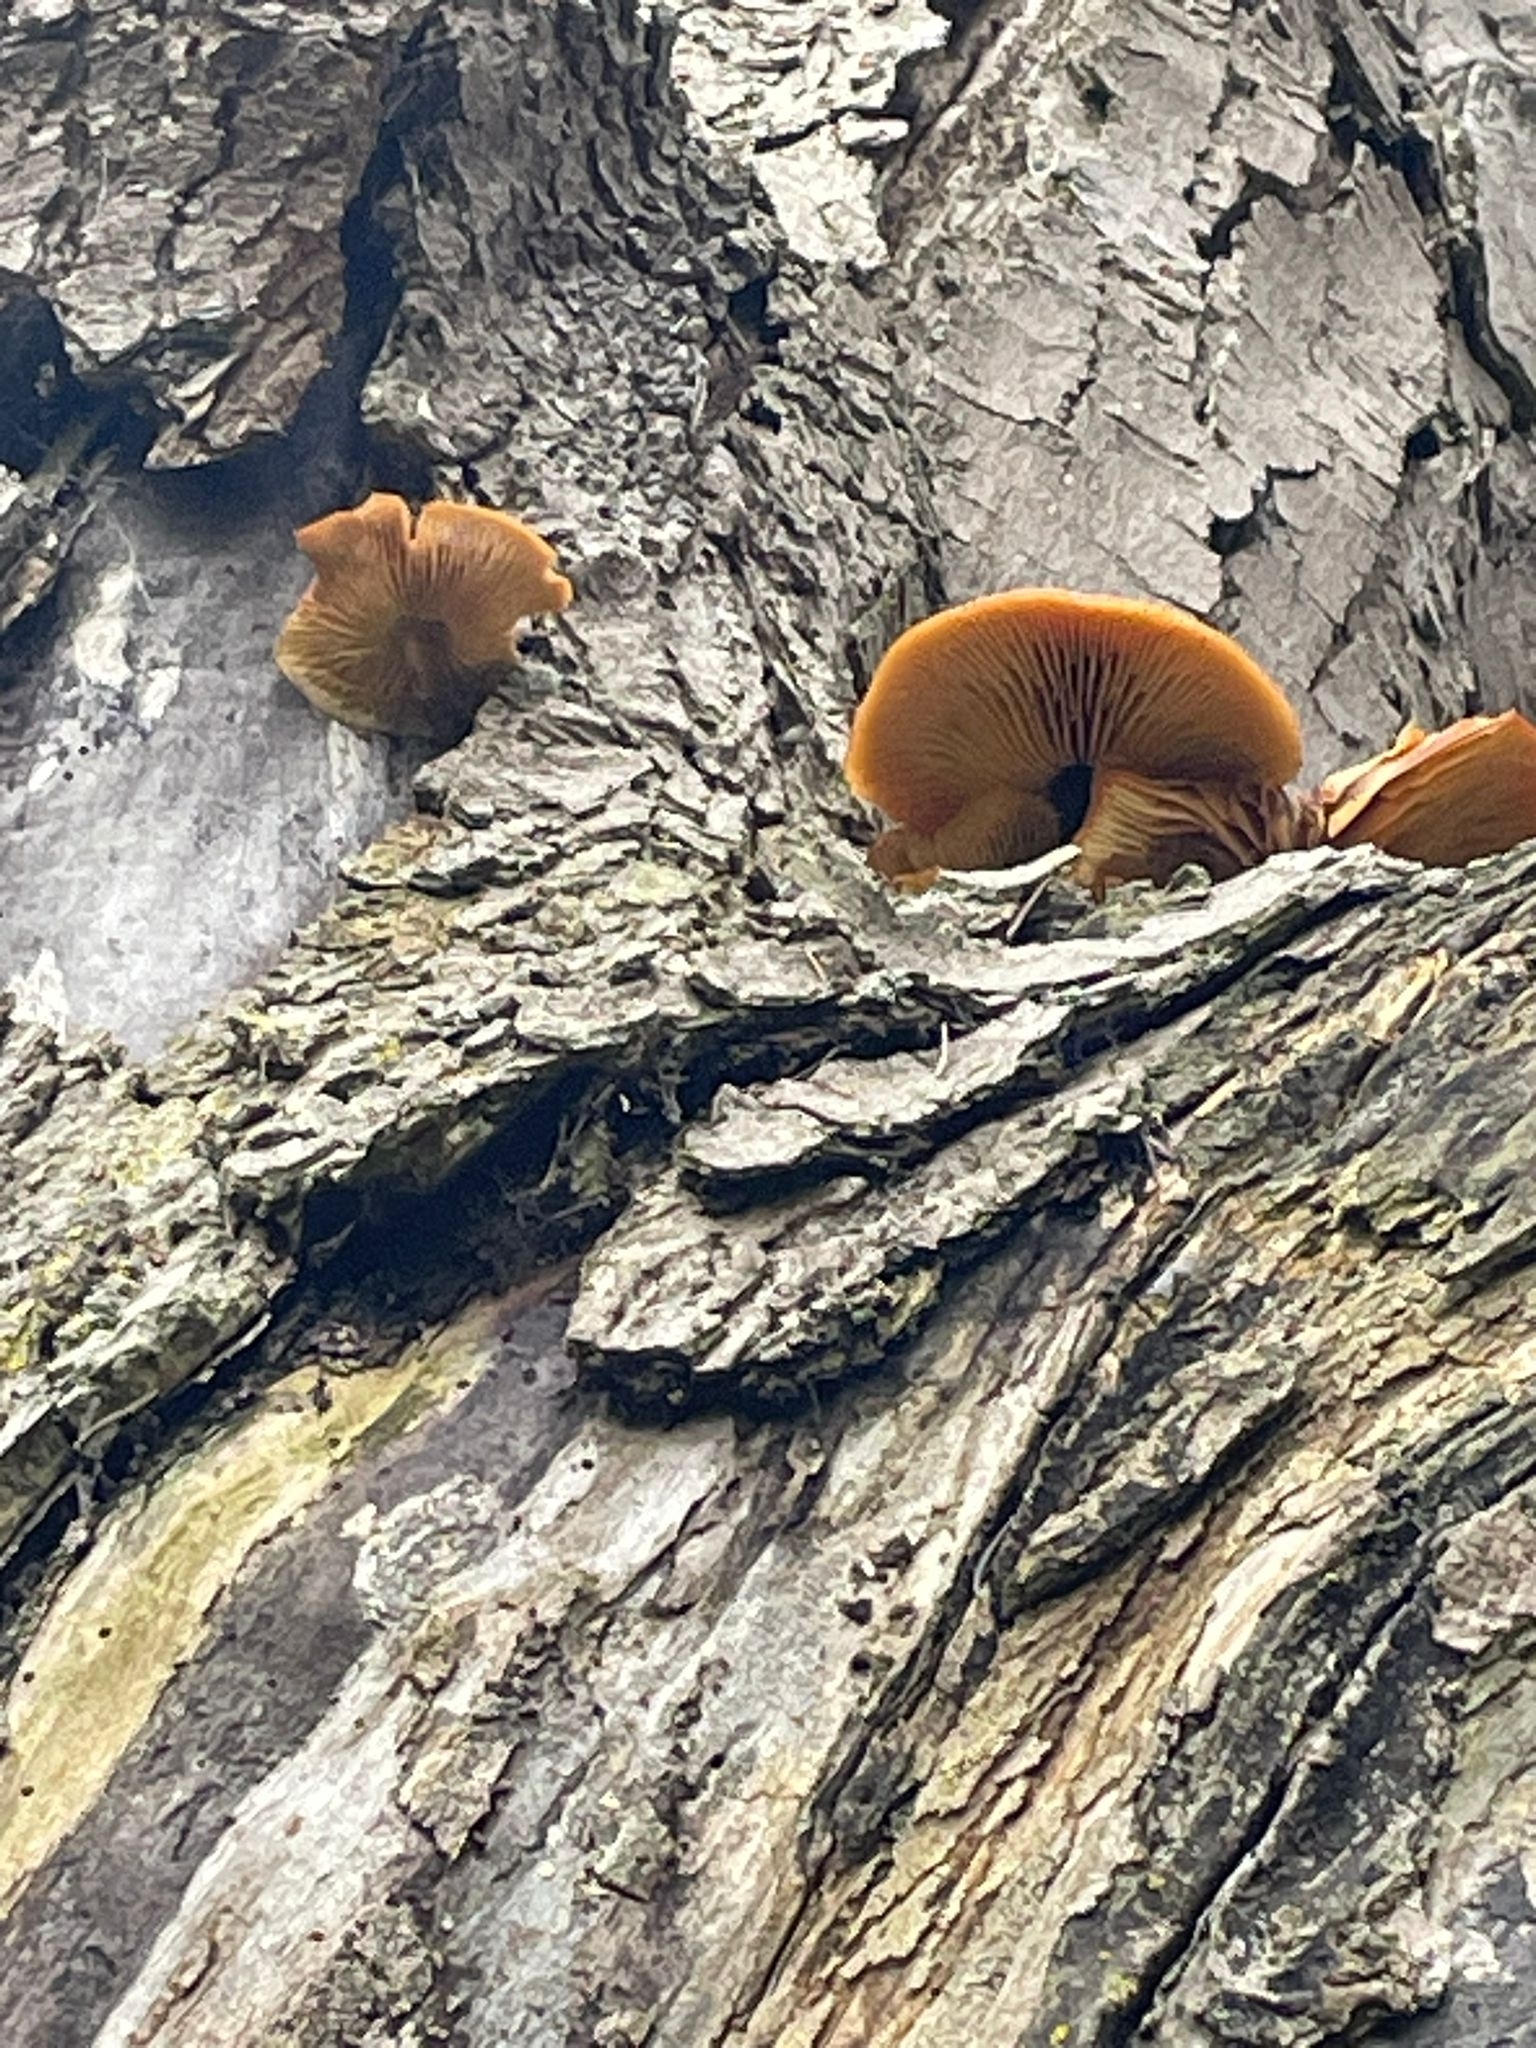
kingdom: Fungi
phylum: Basidiomycota
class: Agaricomycetes
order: Agaricales
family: Physalacriaceae
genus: Flammulina
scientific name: Flammulina
